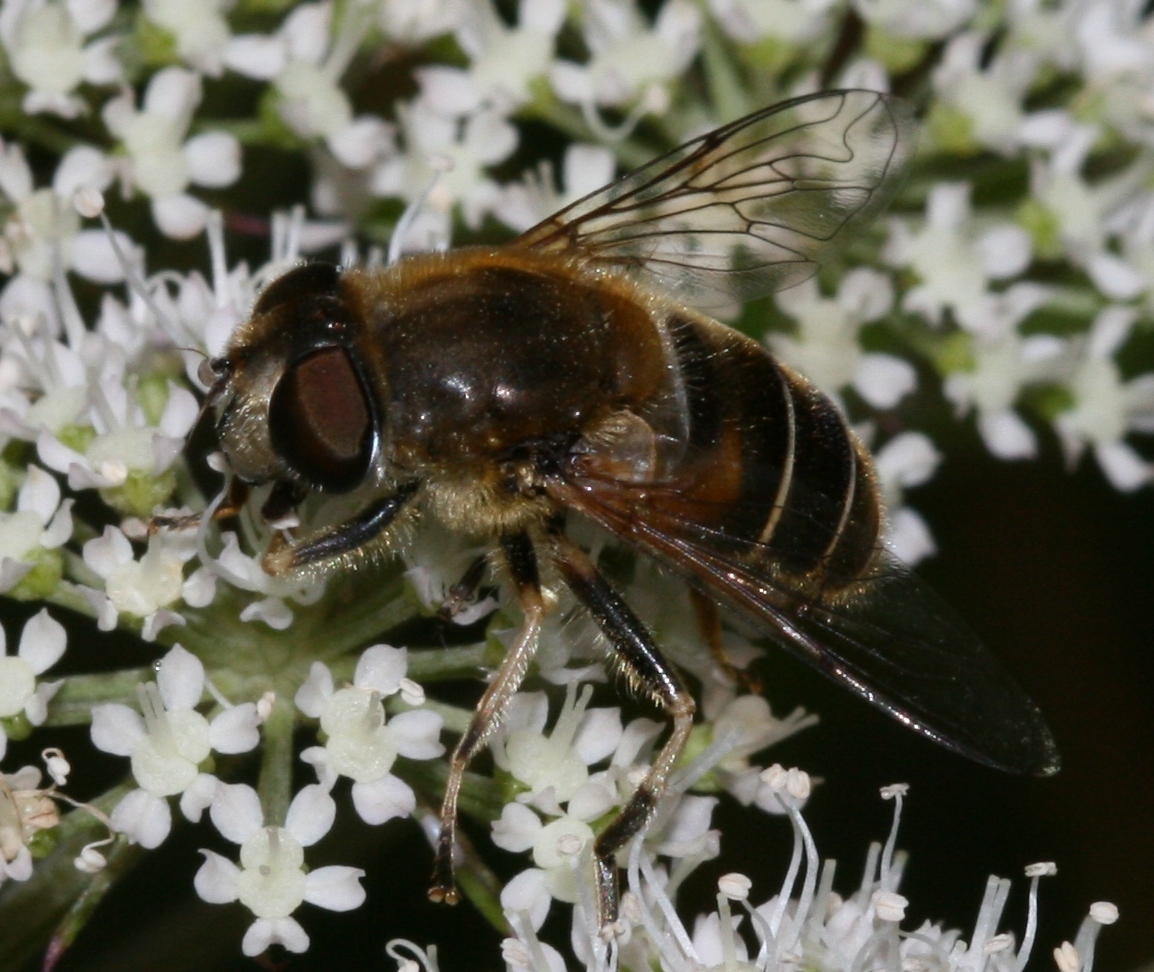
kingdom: Animalia
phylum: Arthropoda
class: Insecta
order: Diptera
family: Syrphidae
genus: Eristalis
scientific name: Eristalis nemorum
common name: Orange-spined drone fly
